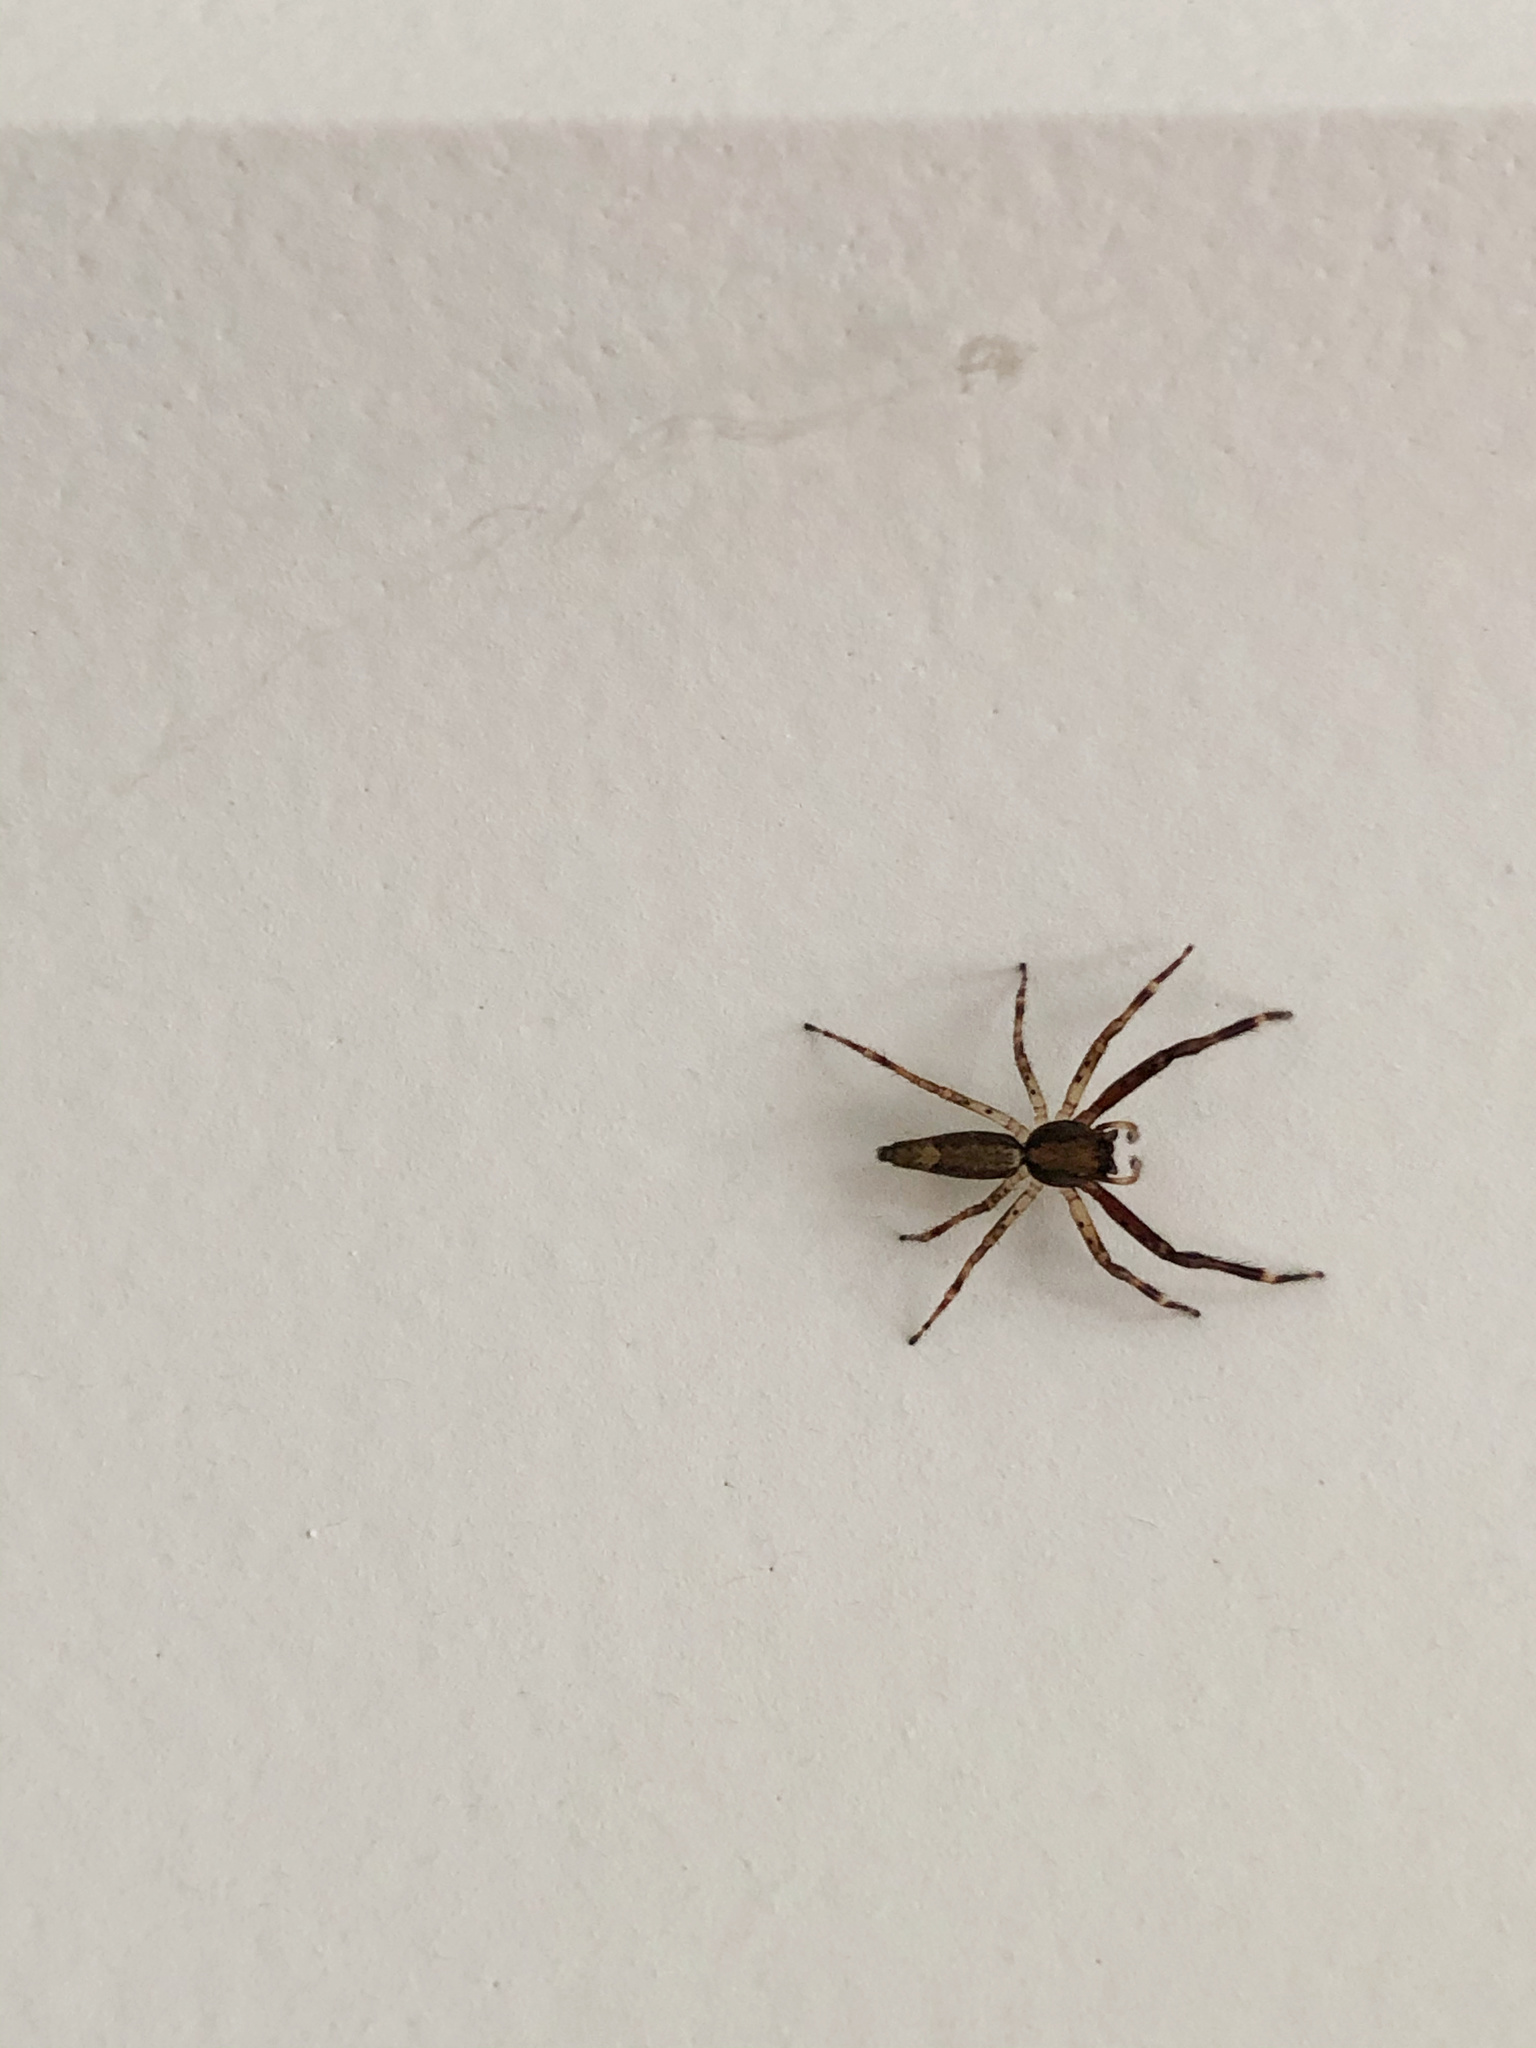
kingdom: Animalia
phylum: Arthropoda
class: Arachnida
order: Araneae
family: Salticidae
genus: Helpis
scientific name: Helpis minitabunda
